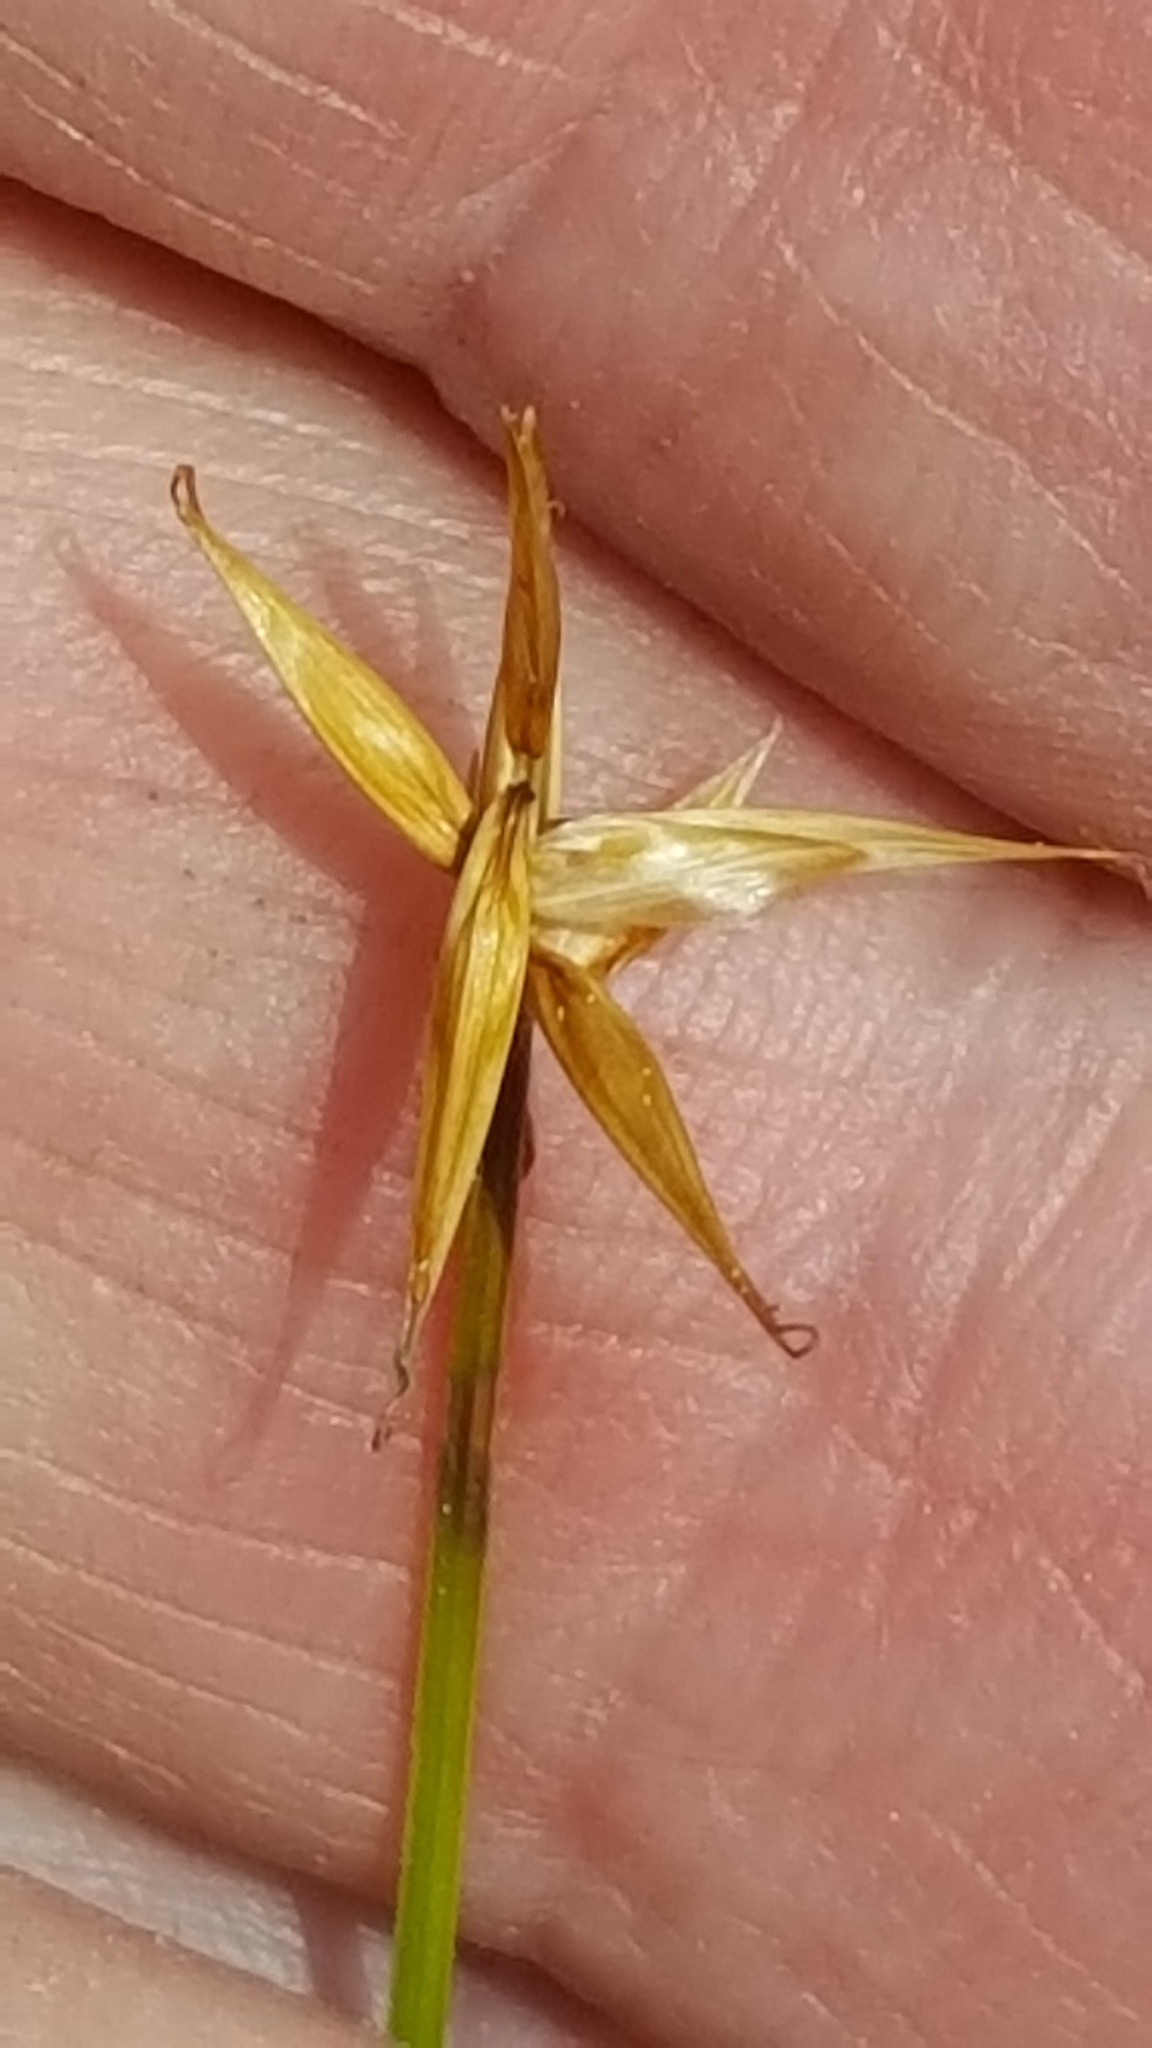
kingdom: Plantae
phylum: Tracheophyta
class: Liliopsida
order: Poales
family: Cyperaceae
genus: Carex
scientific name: Carex pauciflora
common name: Few-flowered sedge
